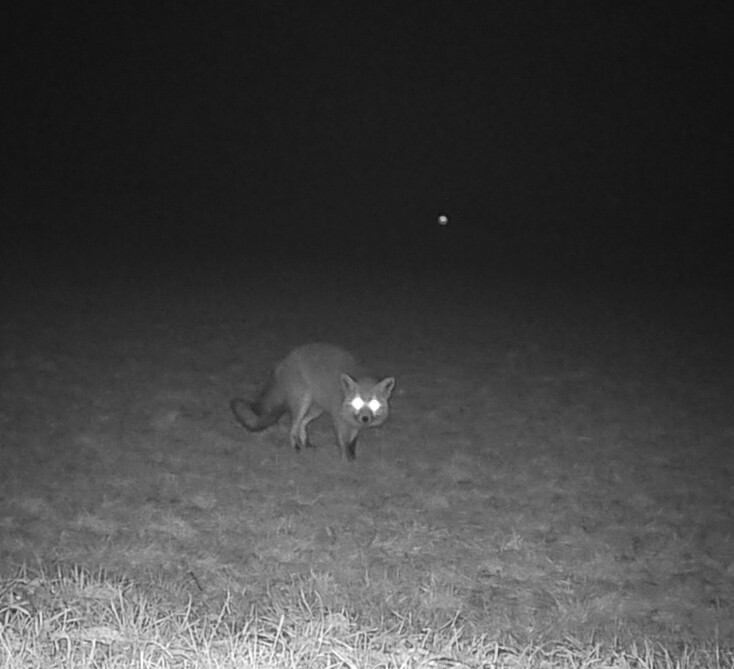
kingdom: Animalia
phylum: Chordata
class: Mammalia
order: Carnivora
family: Canidae
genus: Vulpes
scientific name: Vulpes vulpes
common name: Red fox
